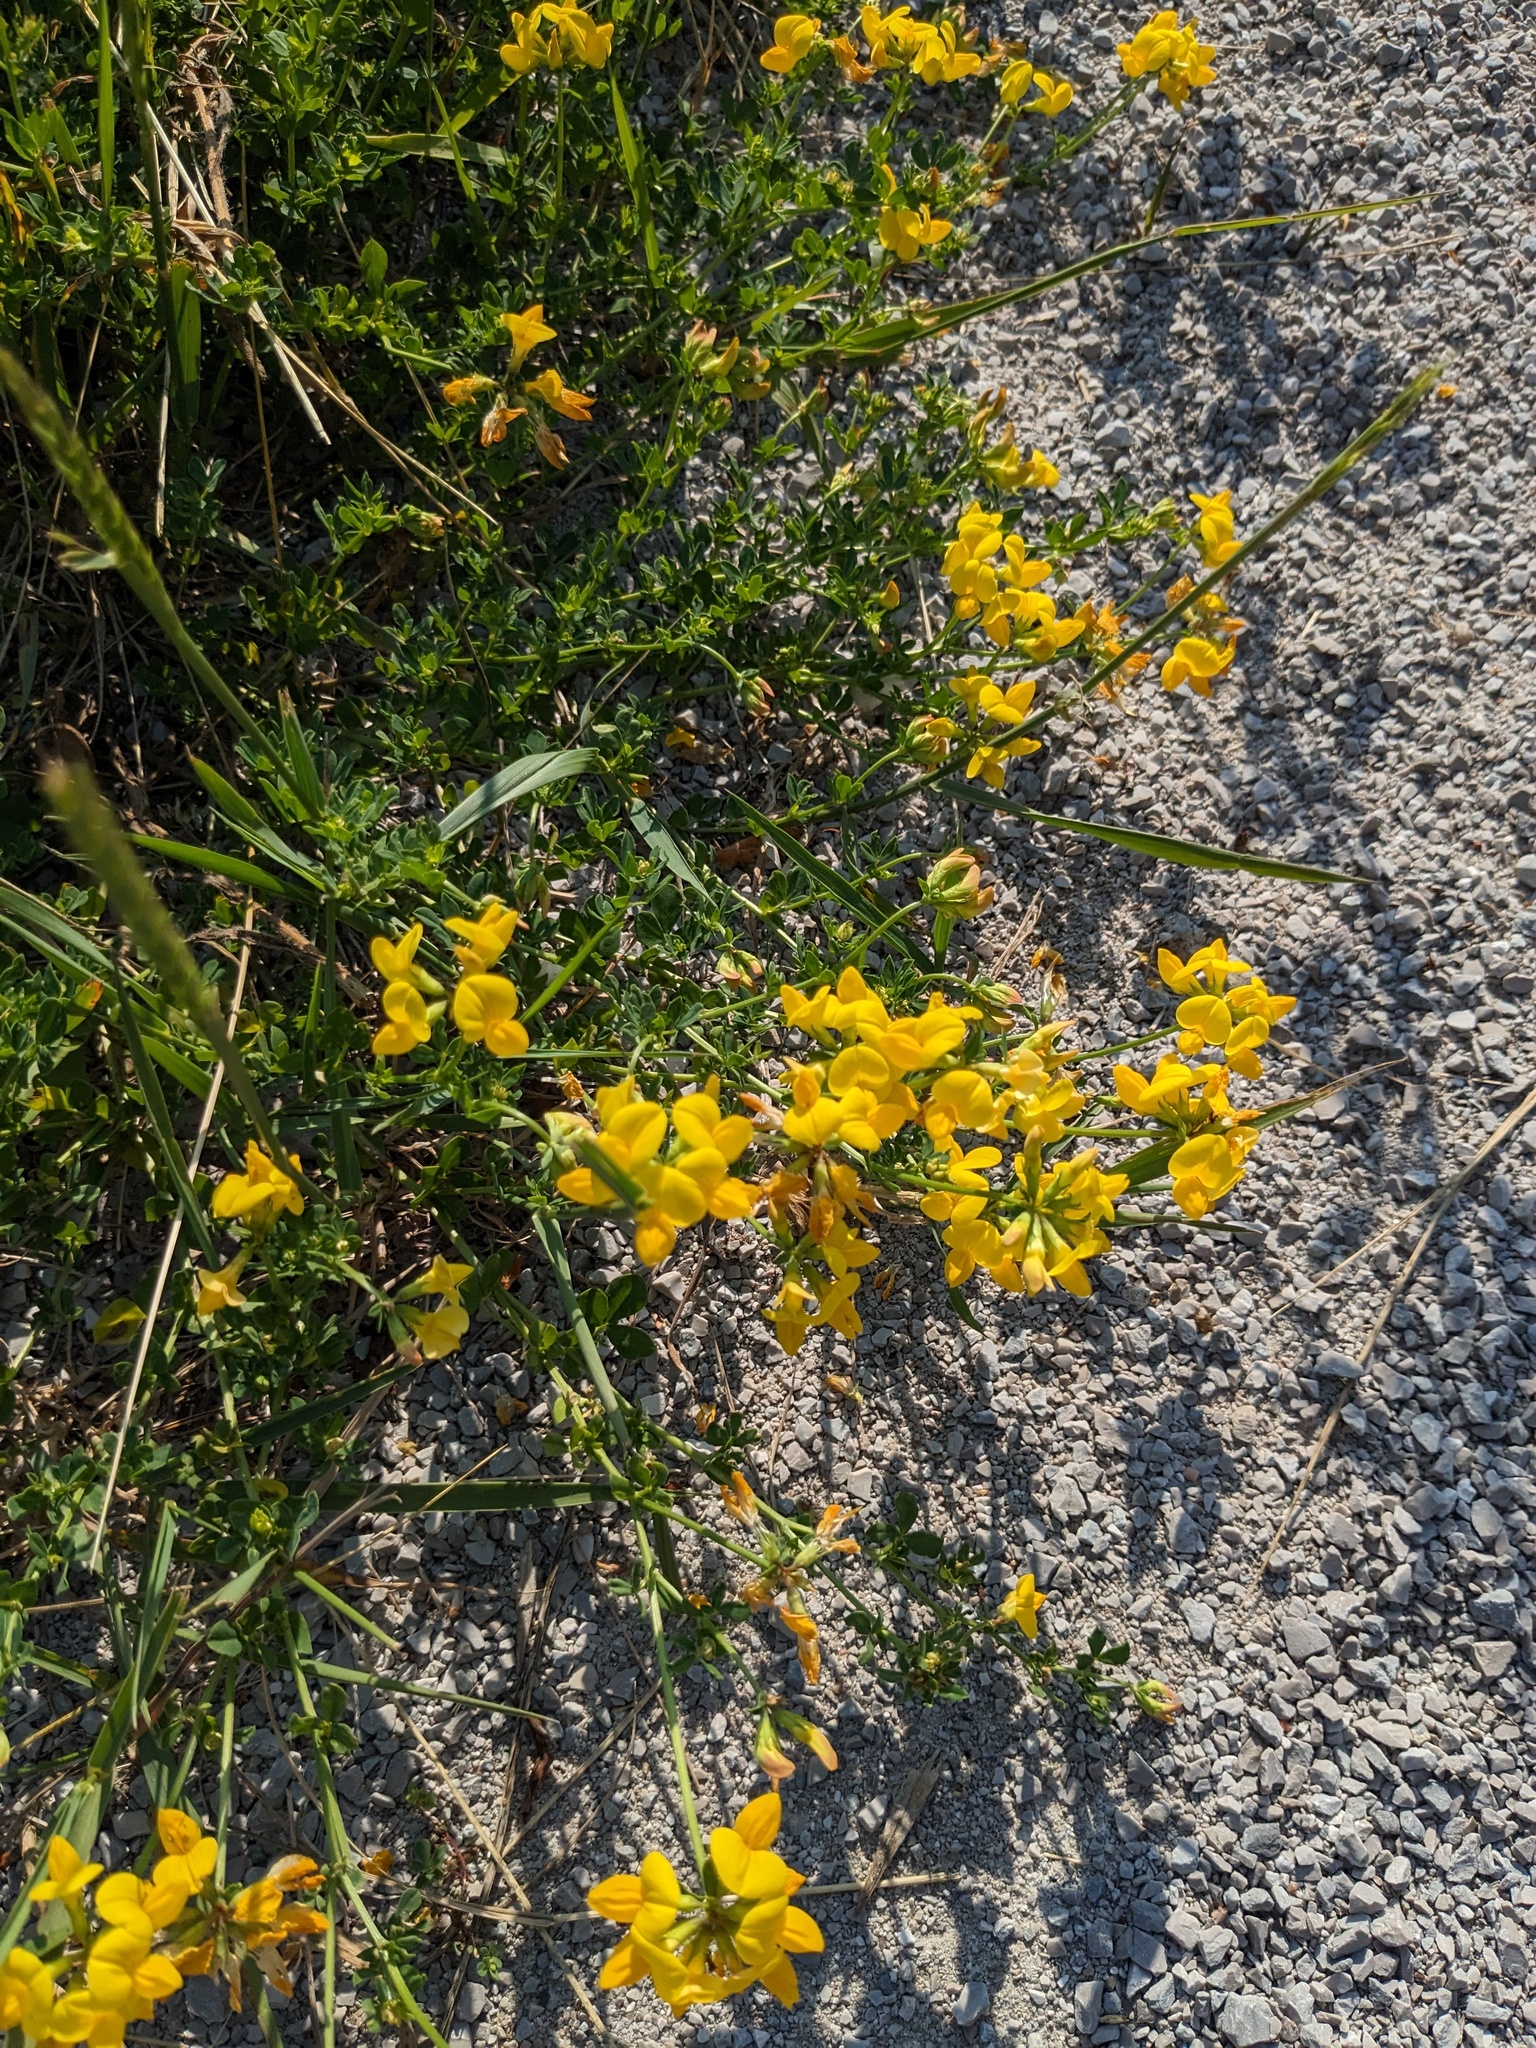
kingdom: Plantae
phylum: Tracheophyta
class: Magnoliopsida
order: Fabales
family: Fabaceae
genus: Lotus
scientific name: Lotus corniculatus
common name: Common bird's-foot-trefoil
